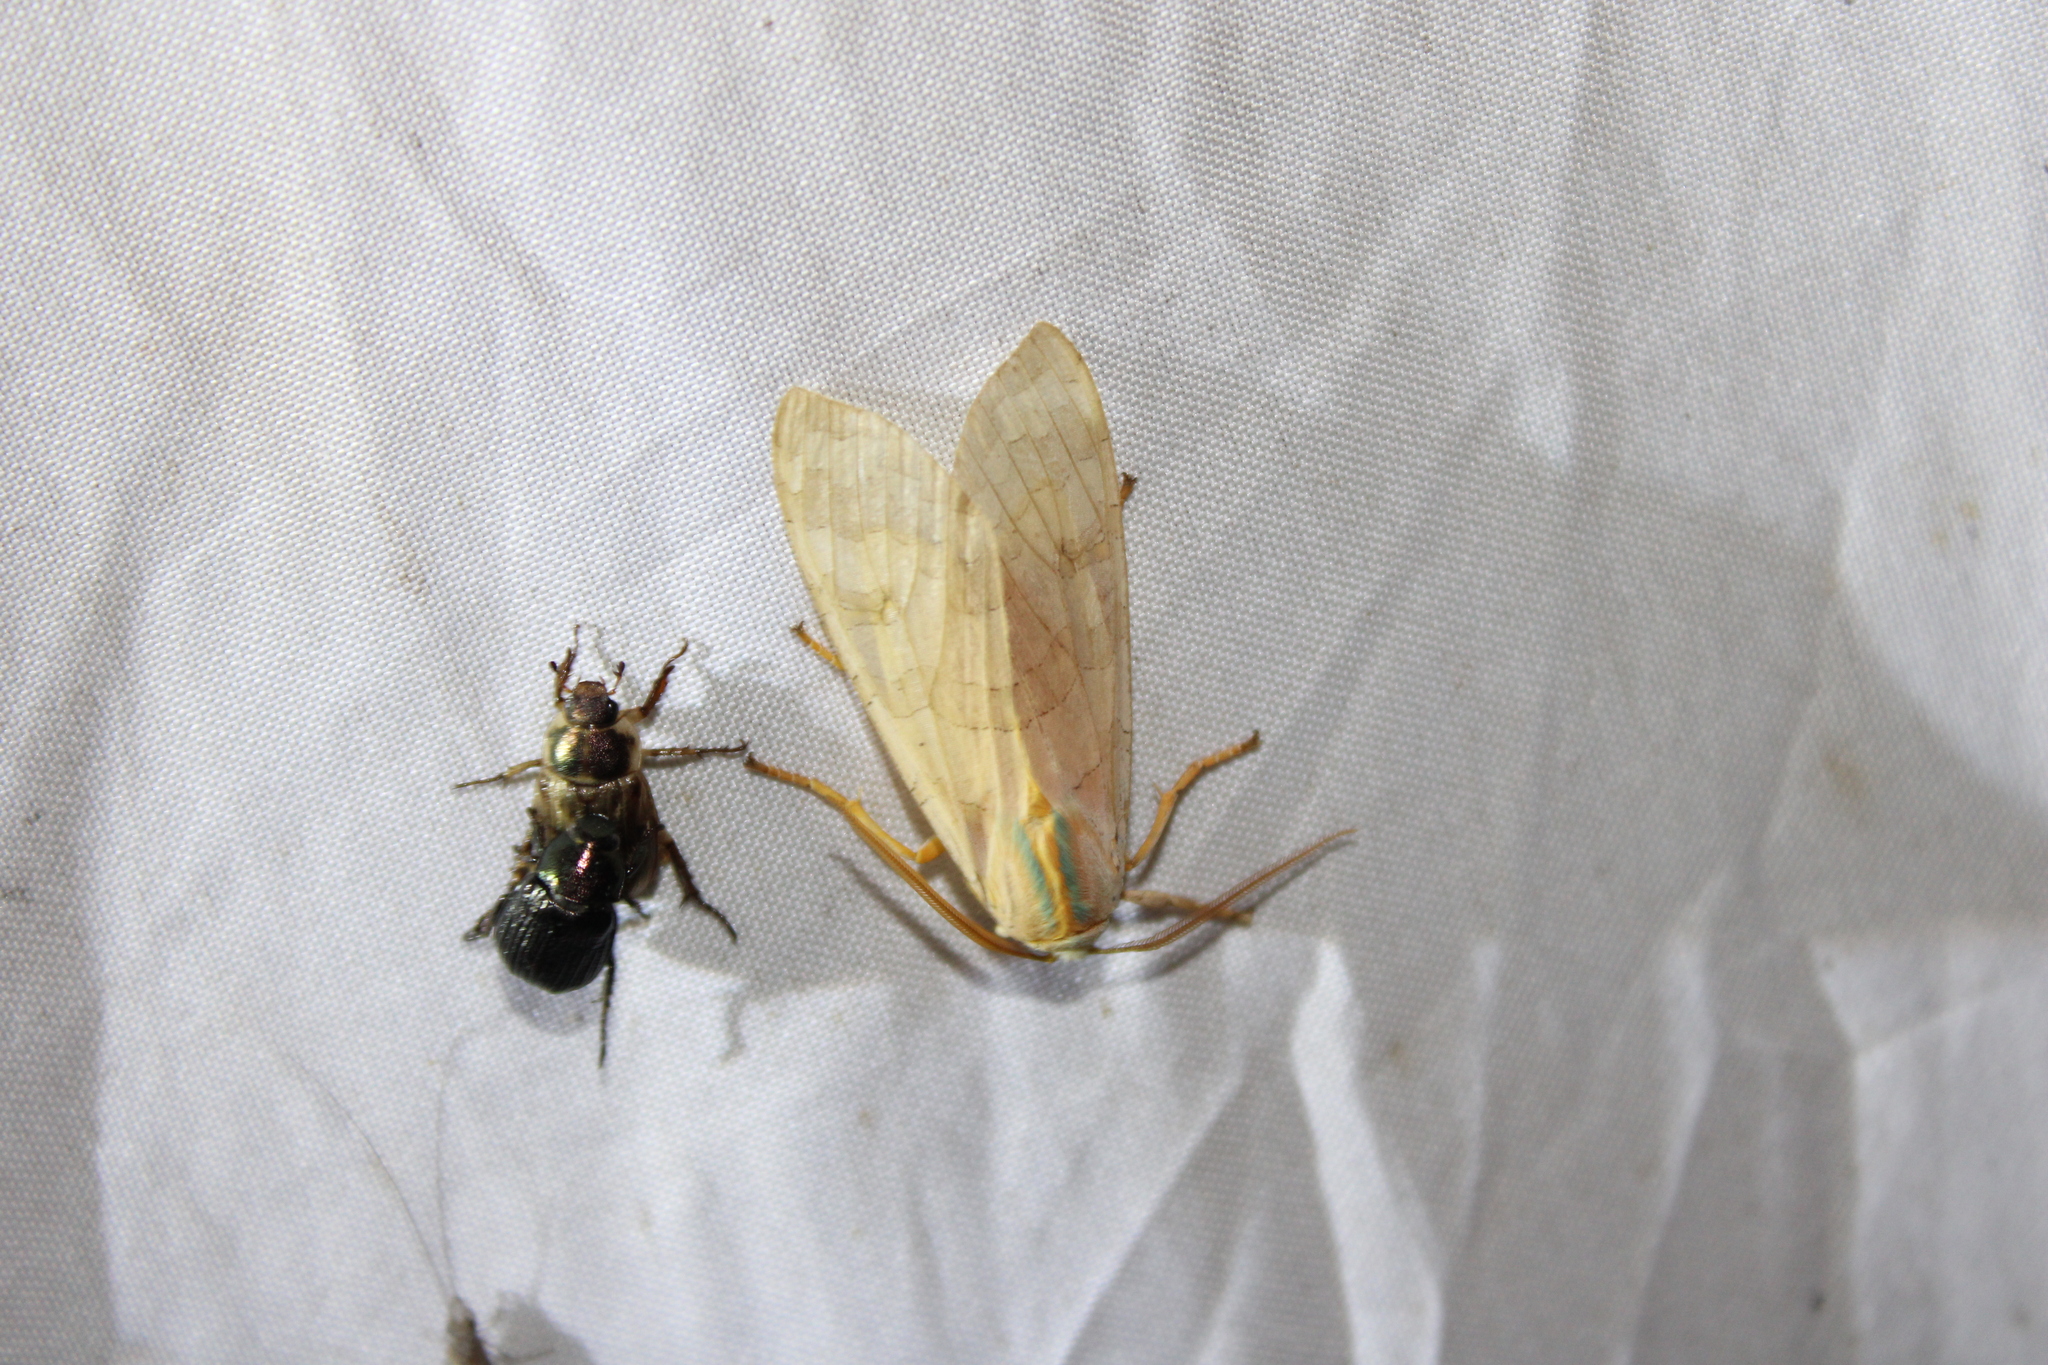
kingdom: Animalia
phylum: Arthropoda
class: Insecta
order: Lepidoptera
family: Erebidae
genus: Halysidota
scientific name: Halysidota
